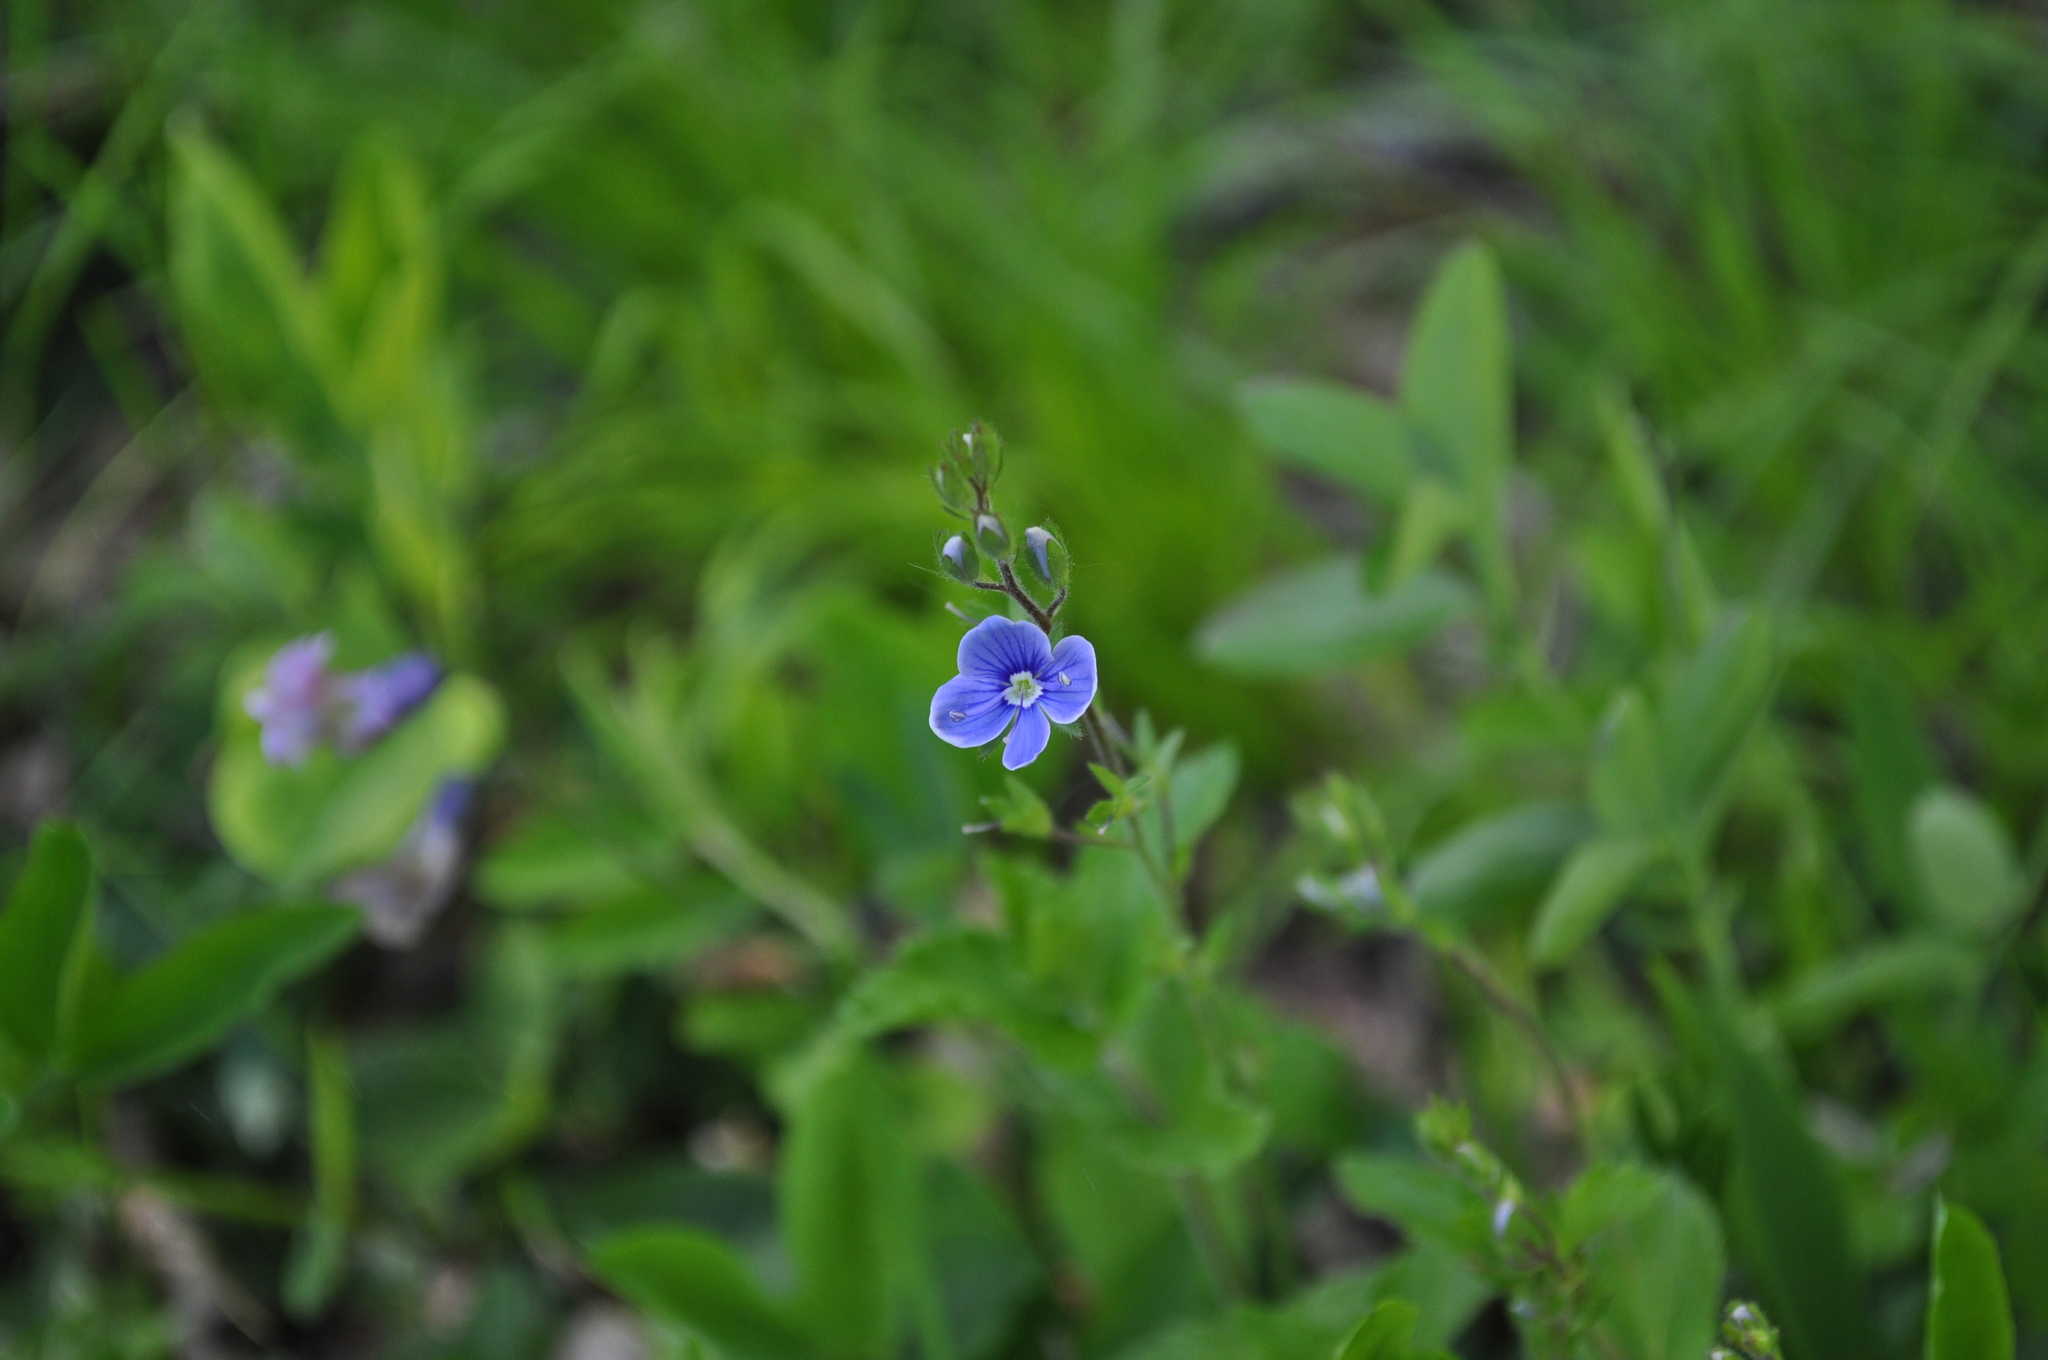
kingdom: Plantae
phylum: Tracheophyta
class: Magnoliopsida
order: Lamiales
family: Plantaginaceae
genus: Veronica
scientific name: Veronica chamaedrys
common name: Germander speedwell
